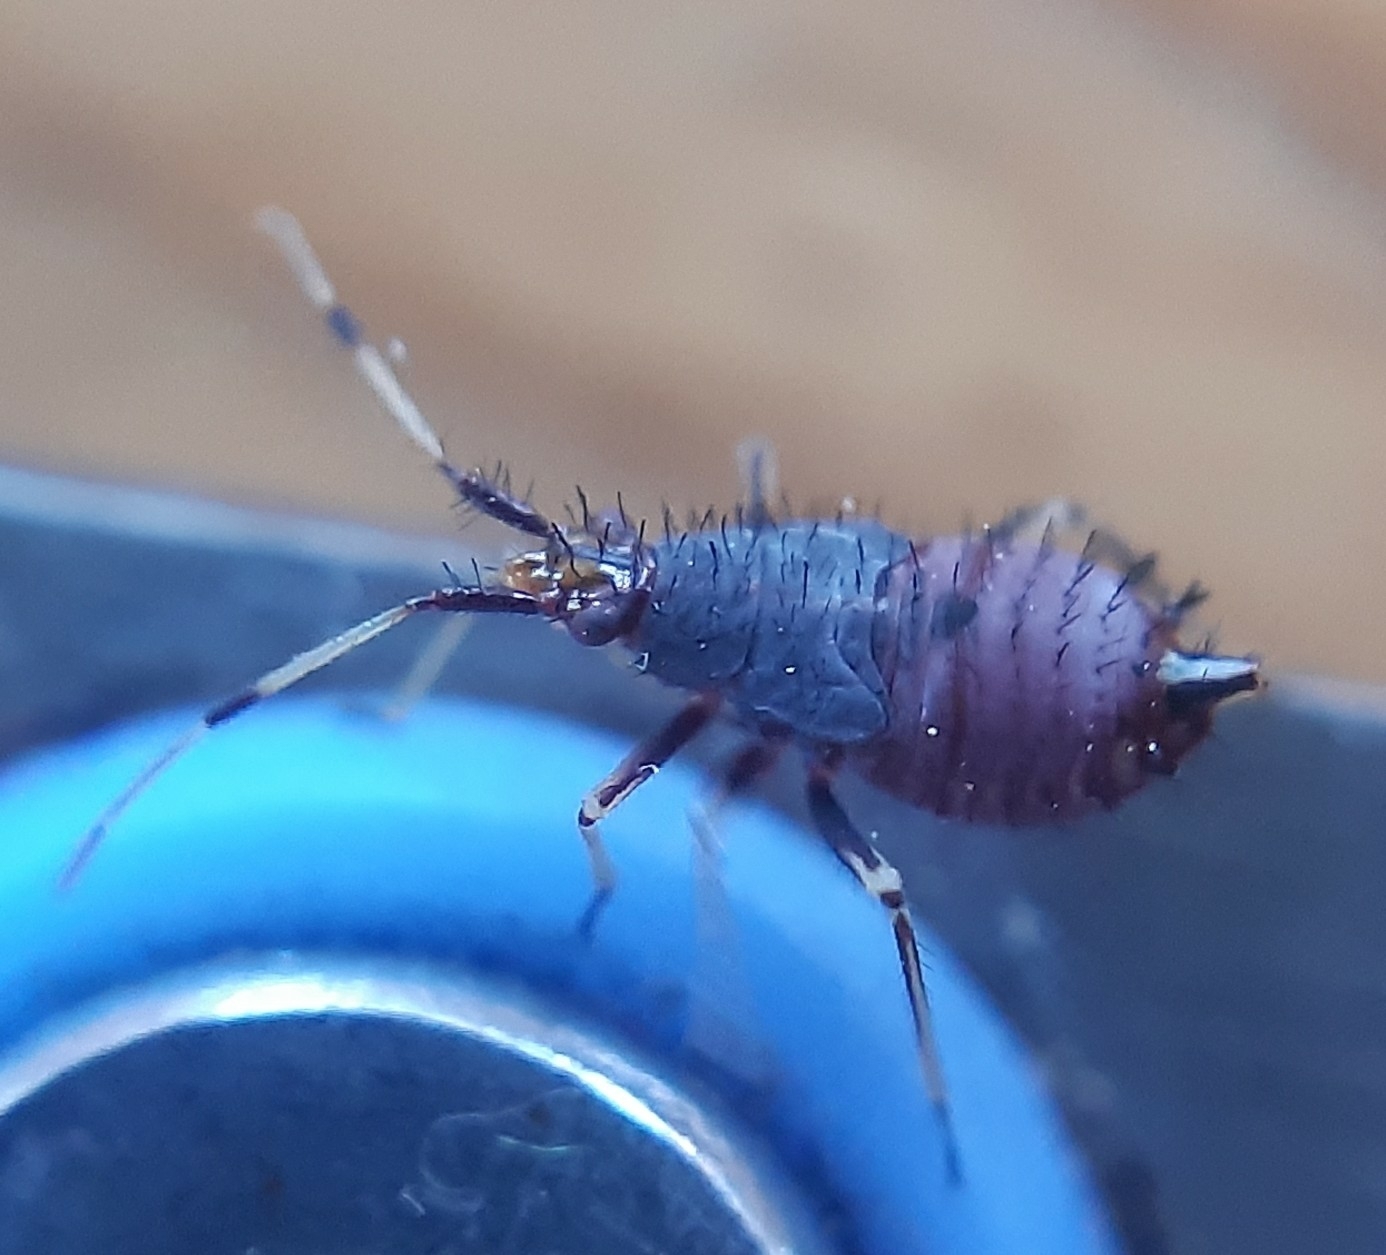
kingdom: Animalia
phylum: Arthropoda
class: Insecta
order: Hemiptera
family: Miridae
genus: Deraeocoris
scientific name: Deraeocoris ruber
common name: Plant bug
